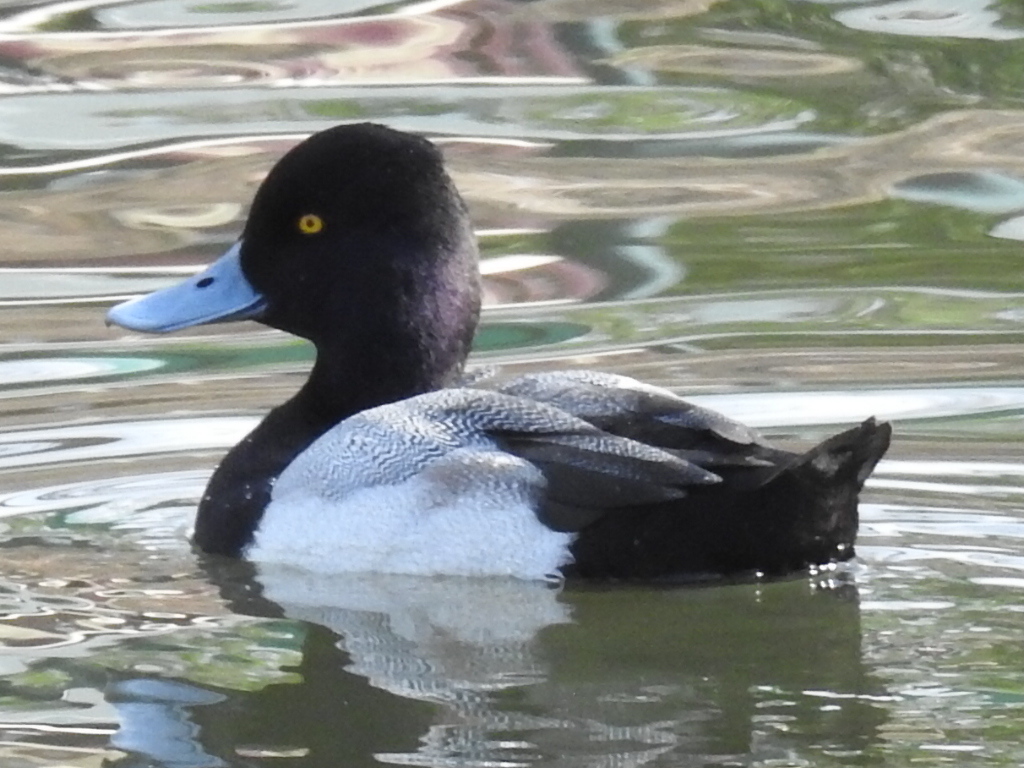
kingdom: Animalia
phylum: Chordata
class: Aves
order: Anseriformes
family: Anatidae
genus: Aythya
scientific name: Aythya affinis
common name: Lesser scaup
